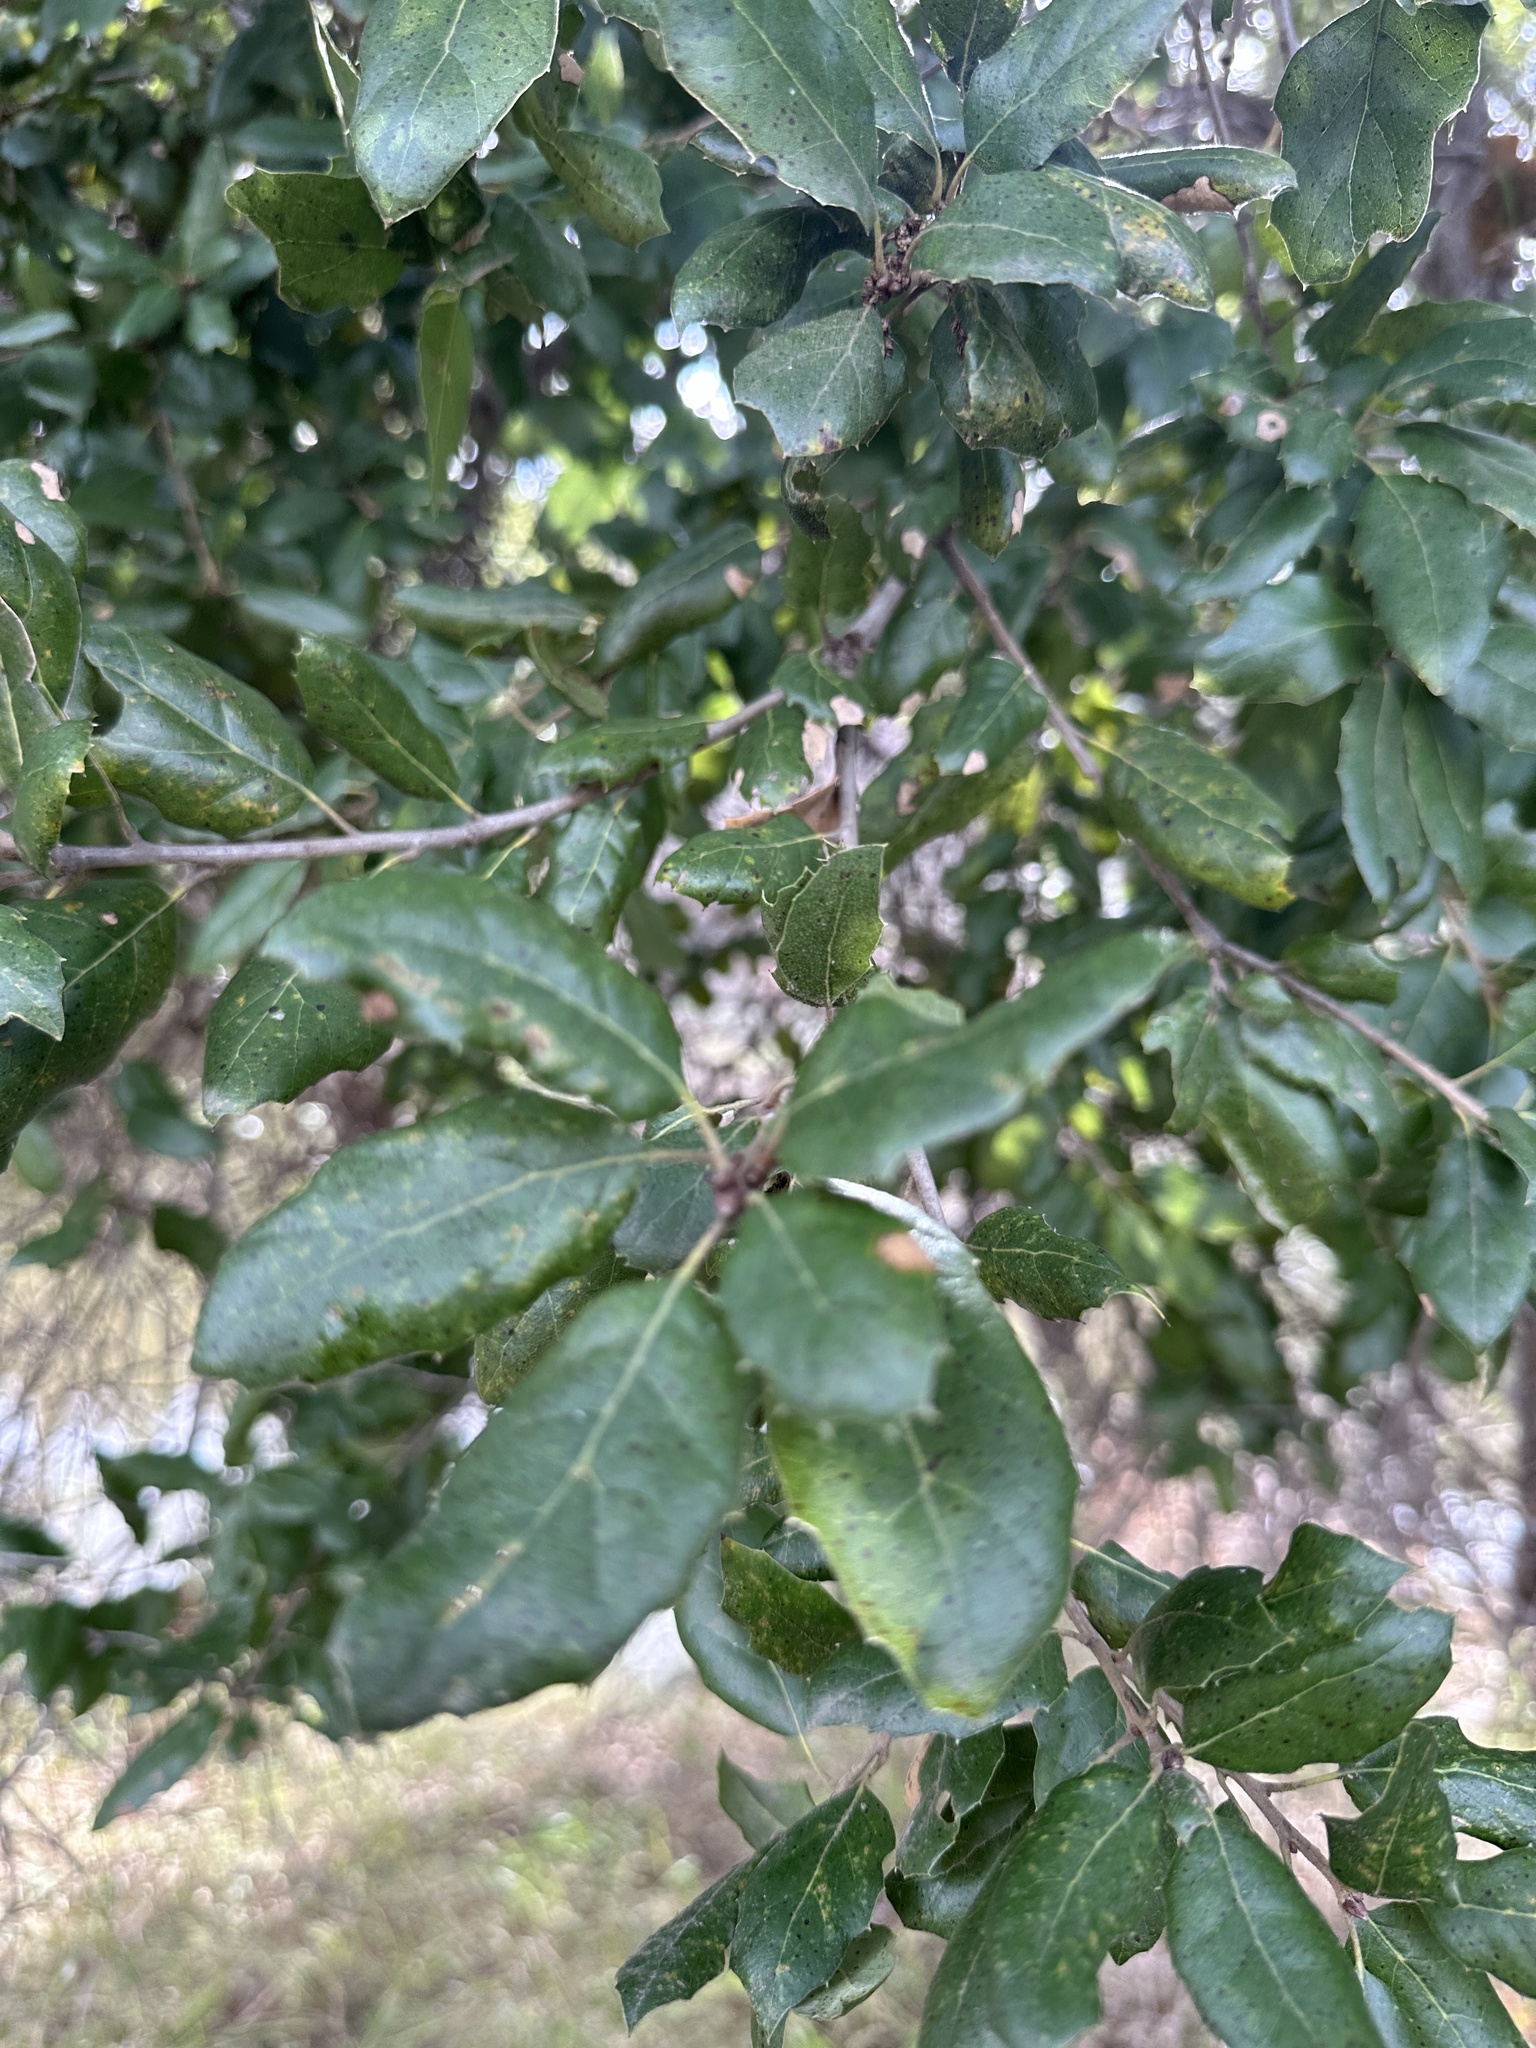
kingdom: Plantae
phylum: Tracheophyta
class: Magnoliopsida
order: Fagales
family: Fagaceae
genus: Quercus
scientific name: Quercus agrifolia
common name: California live oak
